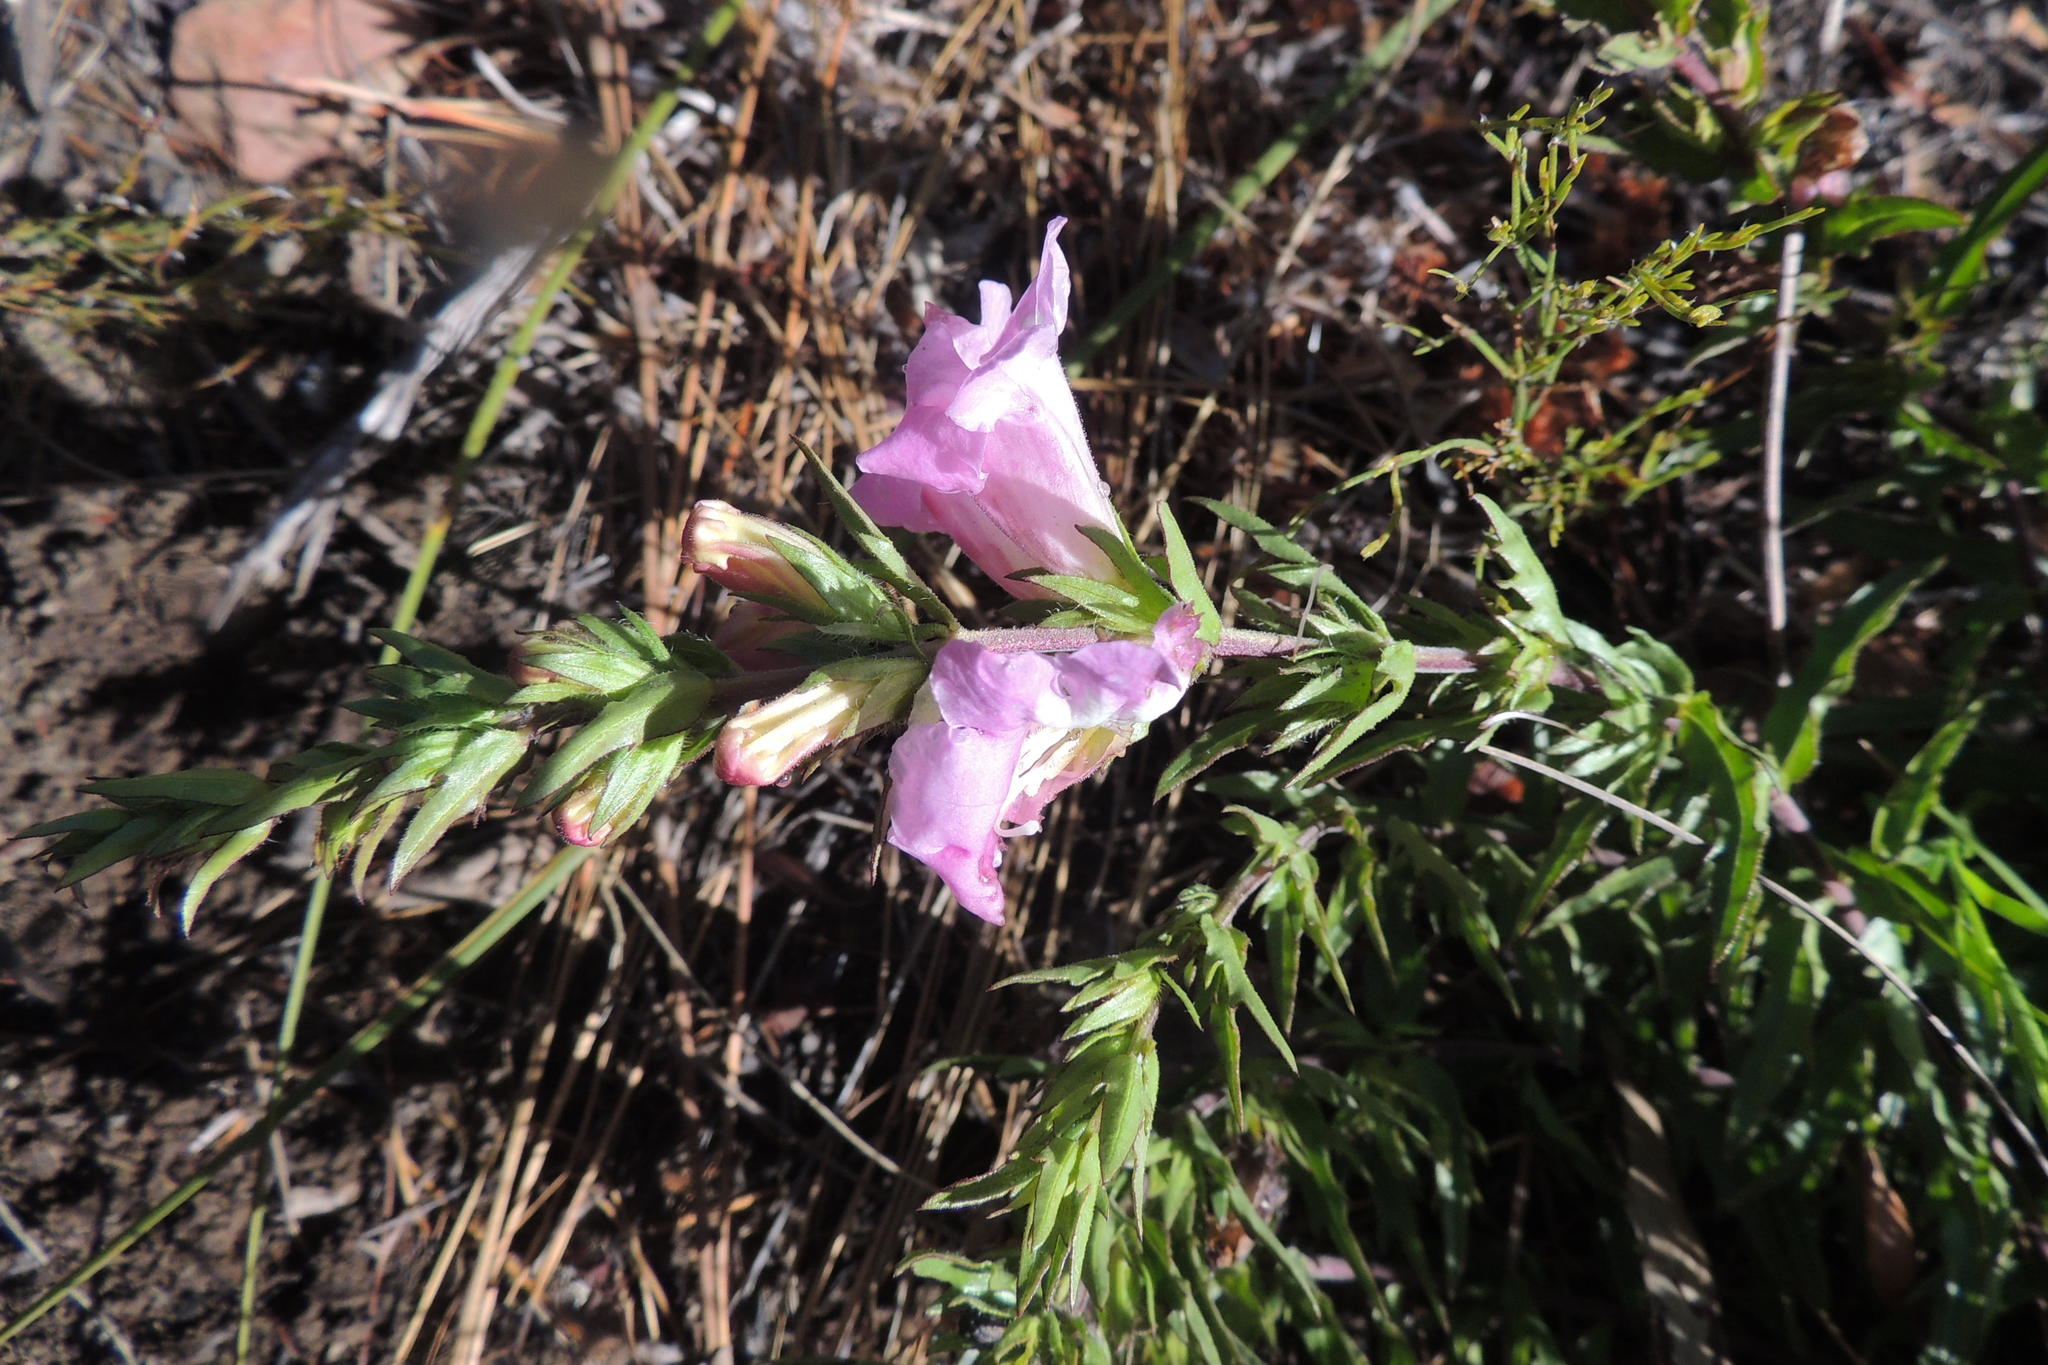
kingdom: Plantae
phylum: Tracheophyta
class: Magnoliopsida
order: Lamiales
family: Orobanchaceae
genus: Graderia
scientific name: Graderia scabra
